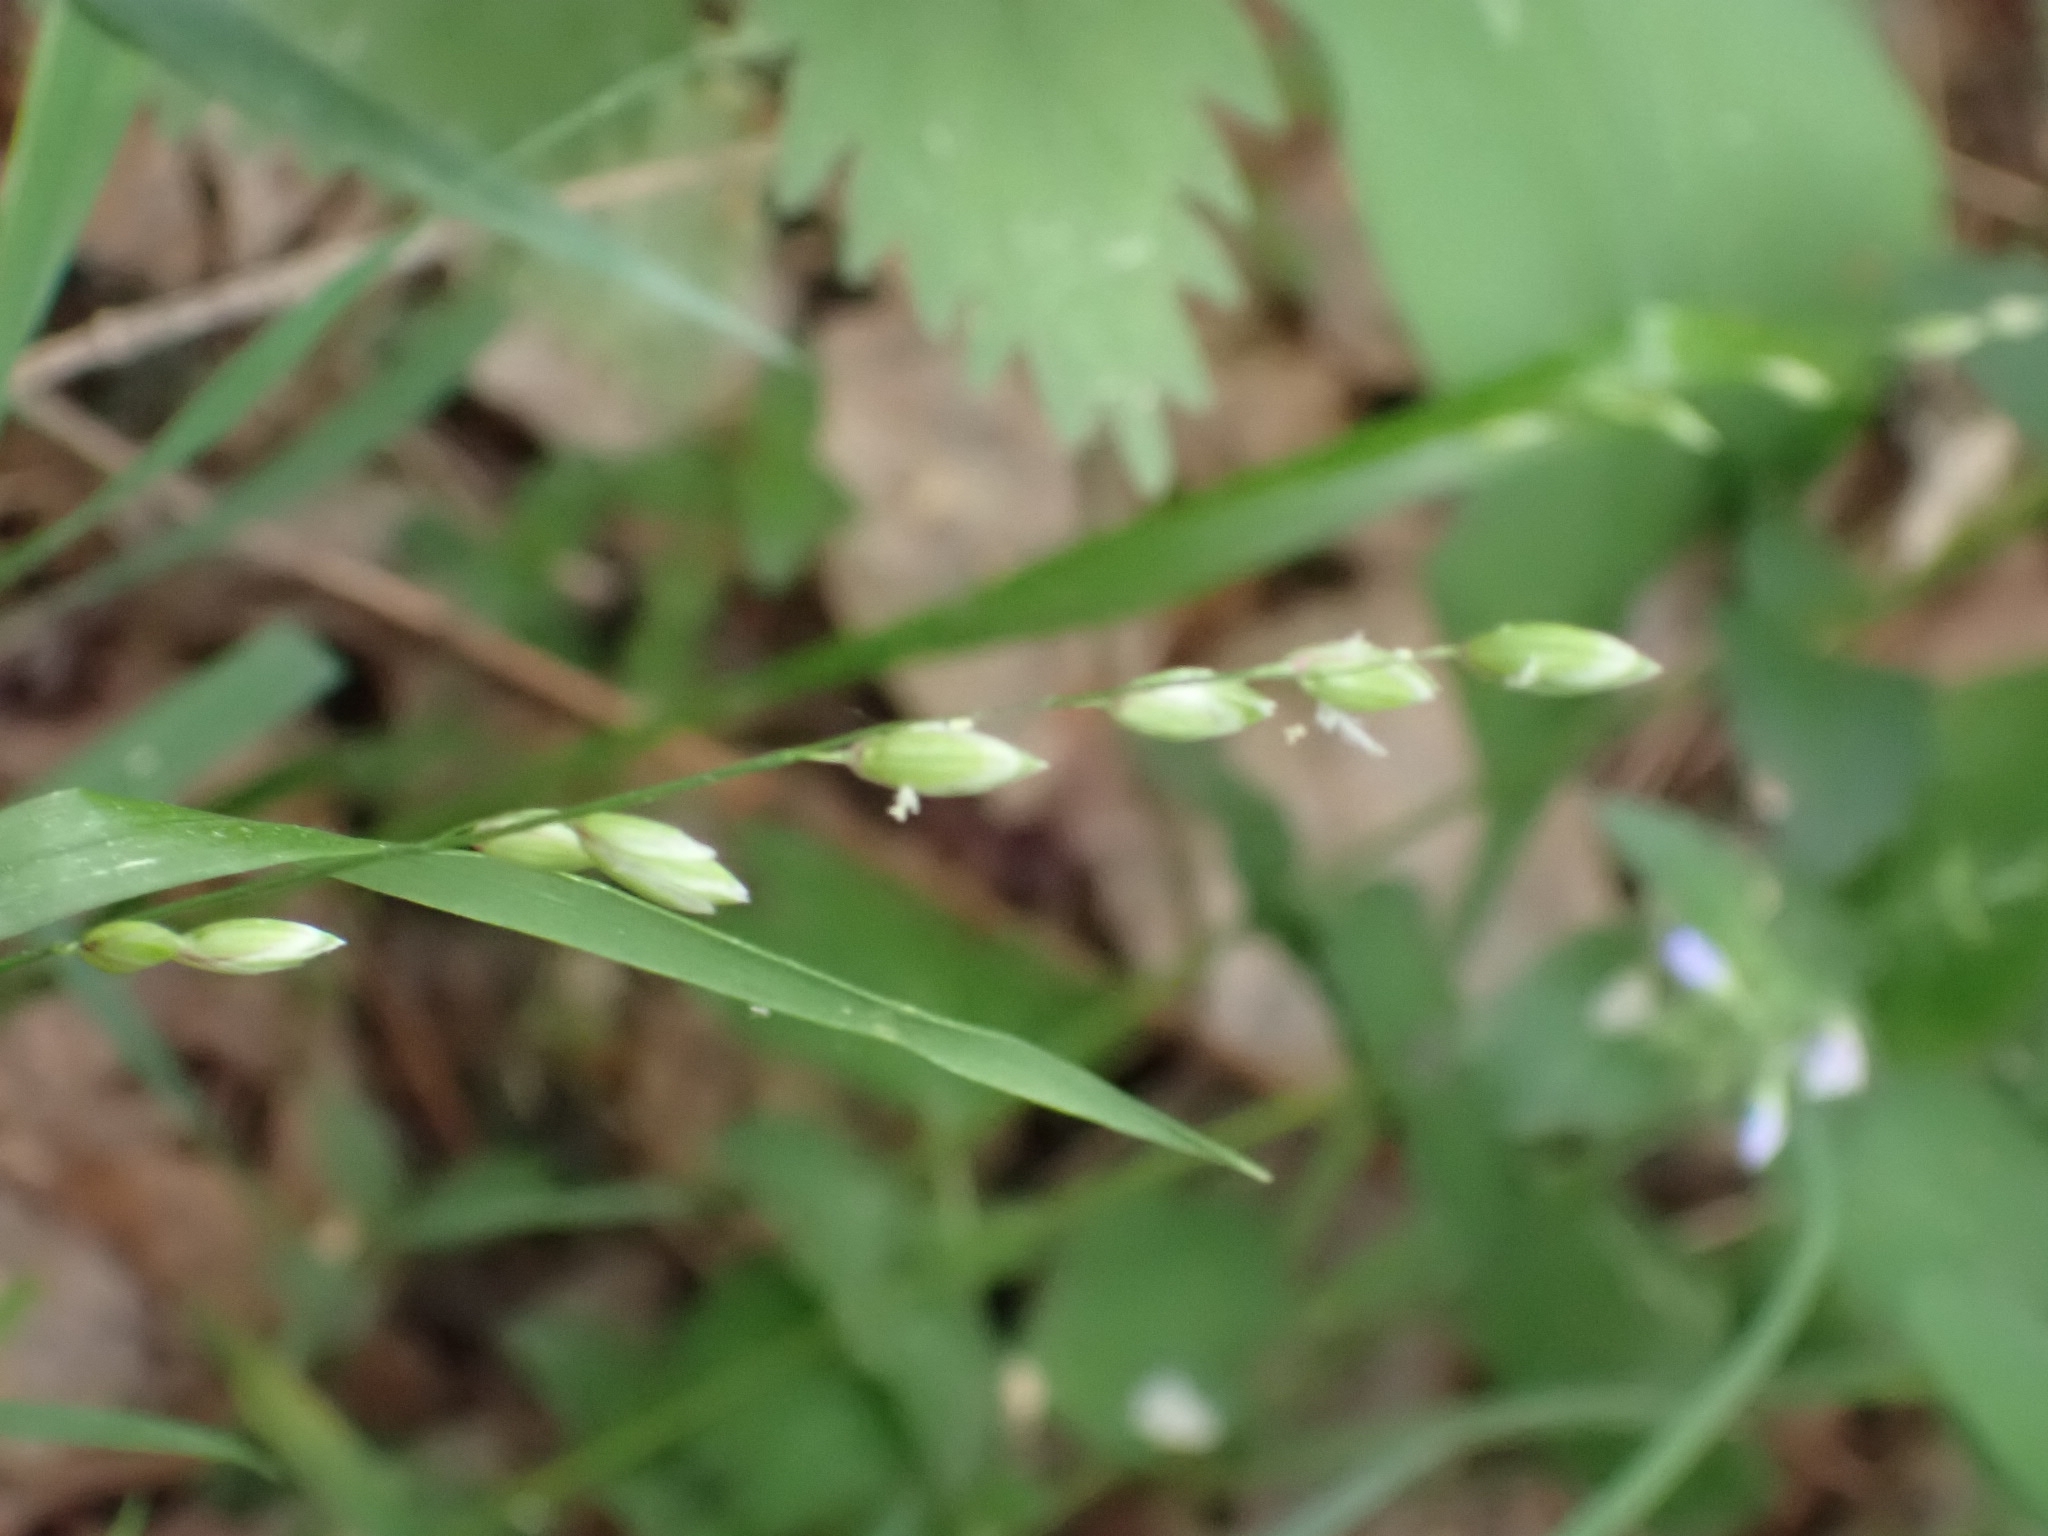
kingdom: Plantae
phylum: Tracheophyta
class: Liliopsida
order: Poales
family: Poaceae
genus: Melica
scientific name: Melica nutans
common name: Mountain melick
